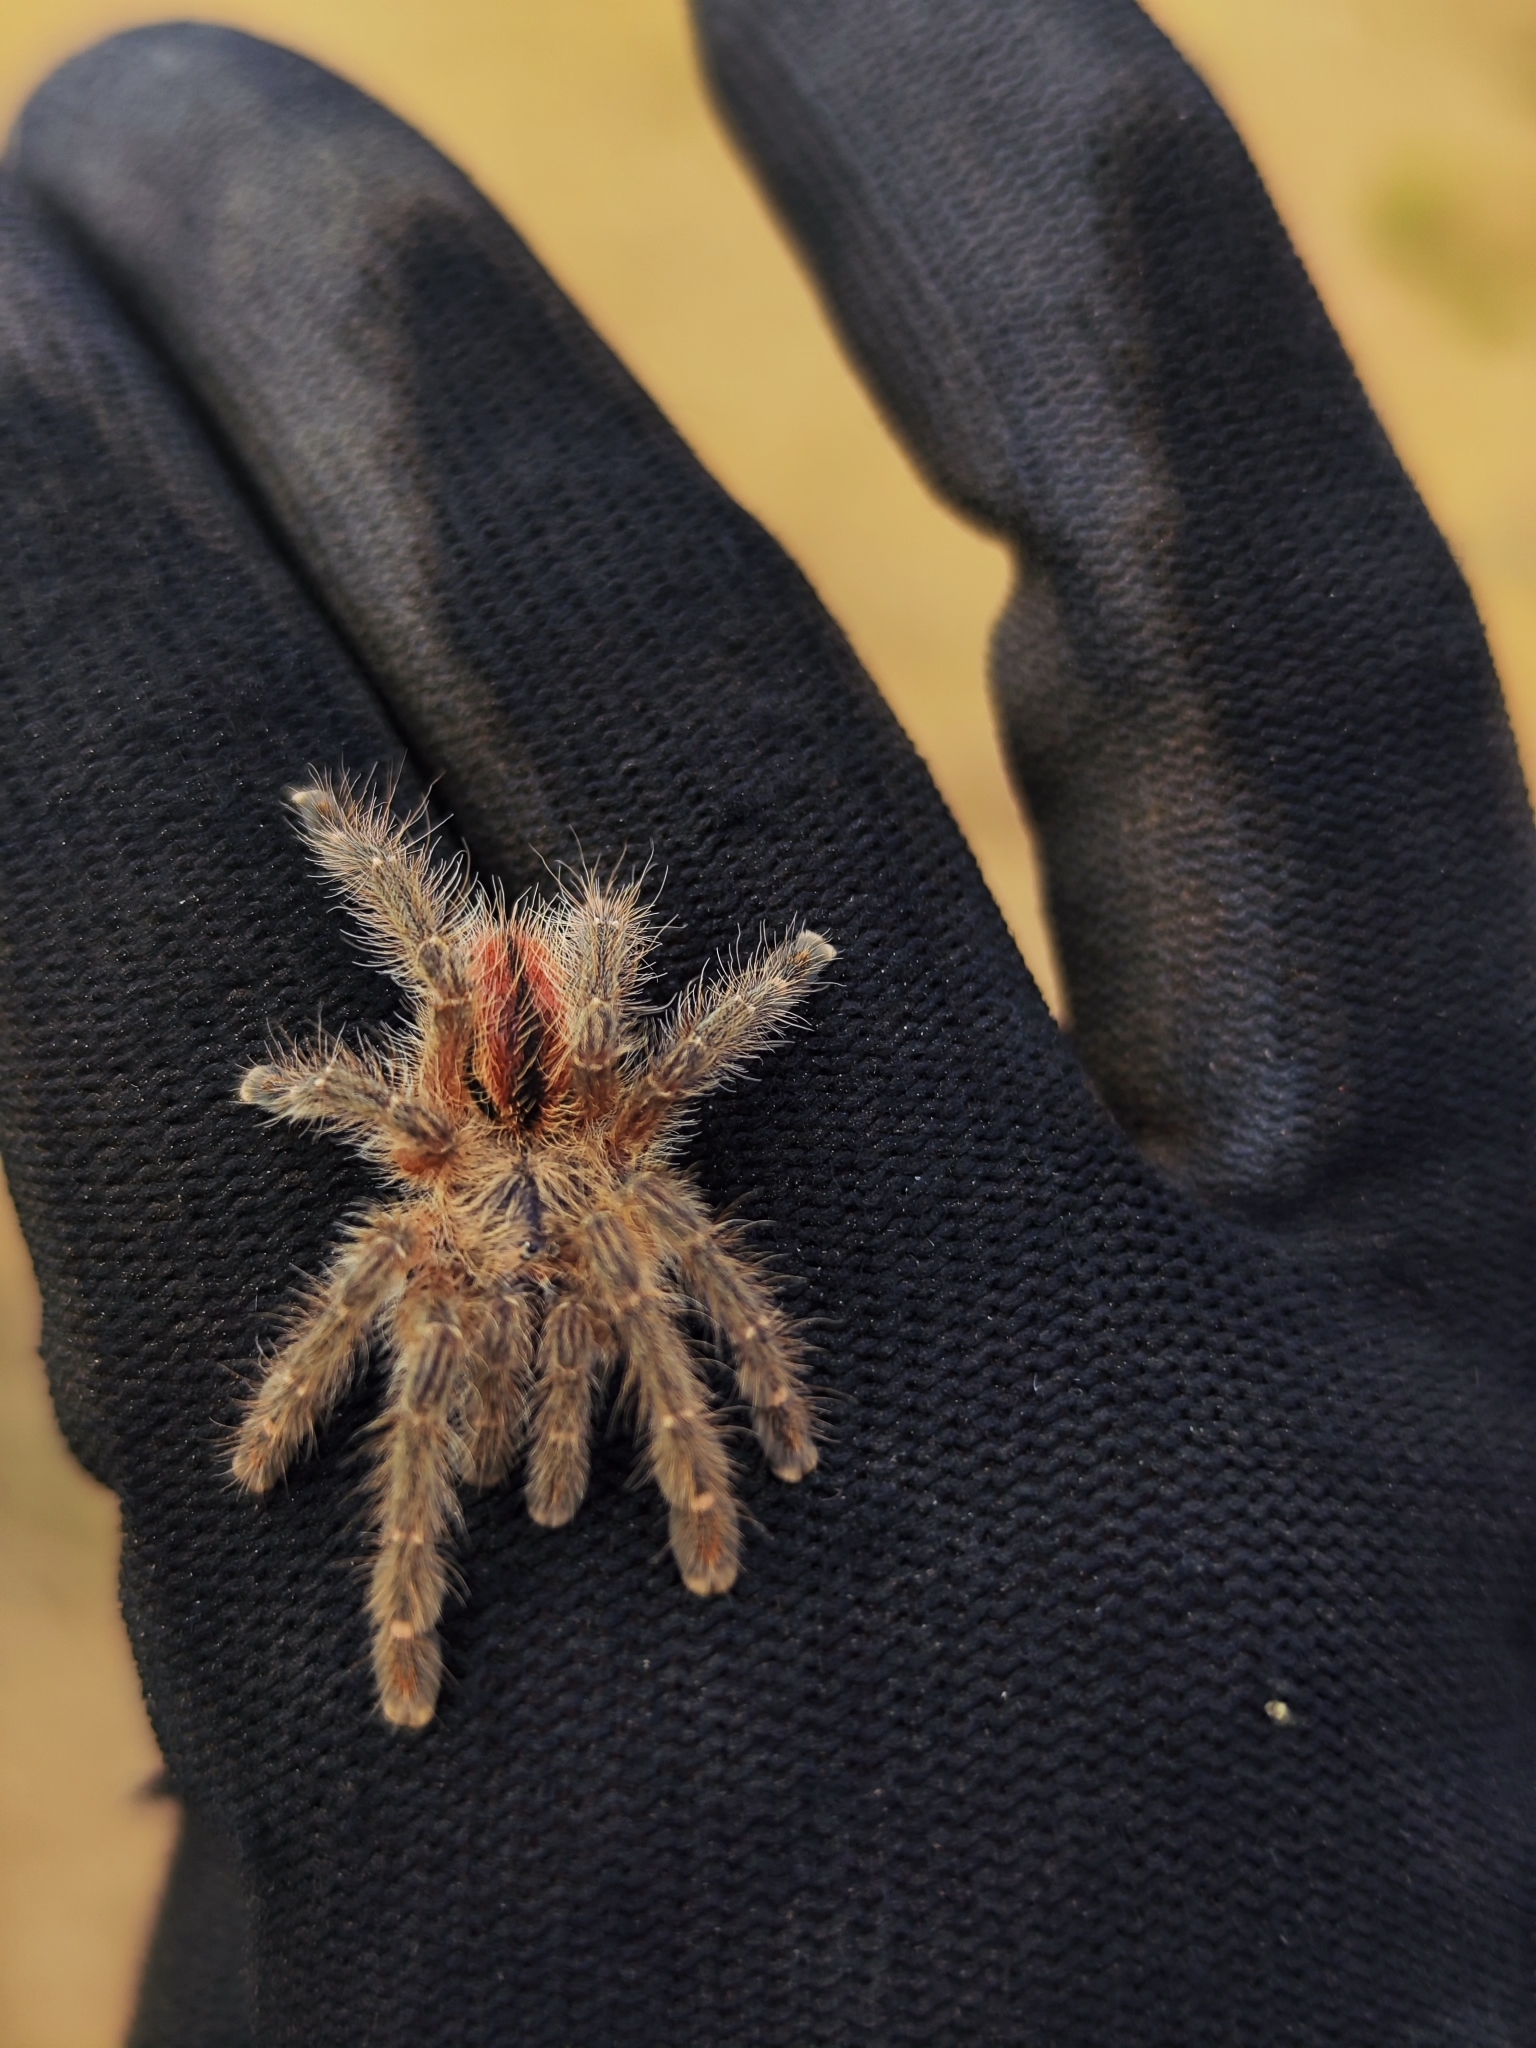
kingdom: Animalia
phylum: Arthropoda
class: Arachnida
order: Araneae
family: Theraphosidae
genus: Iridopelma
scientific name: Iridopelma hirsutum
